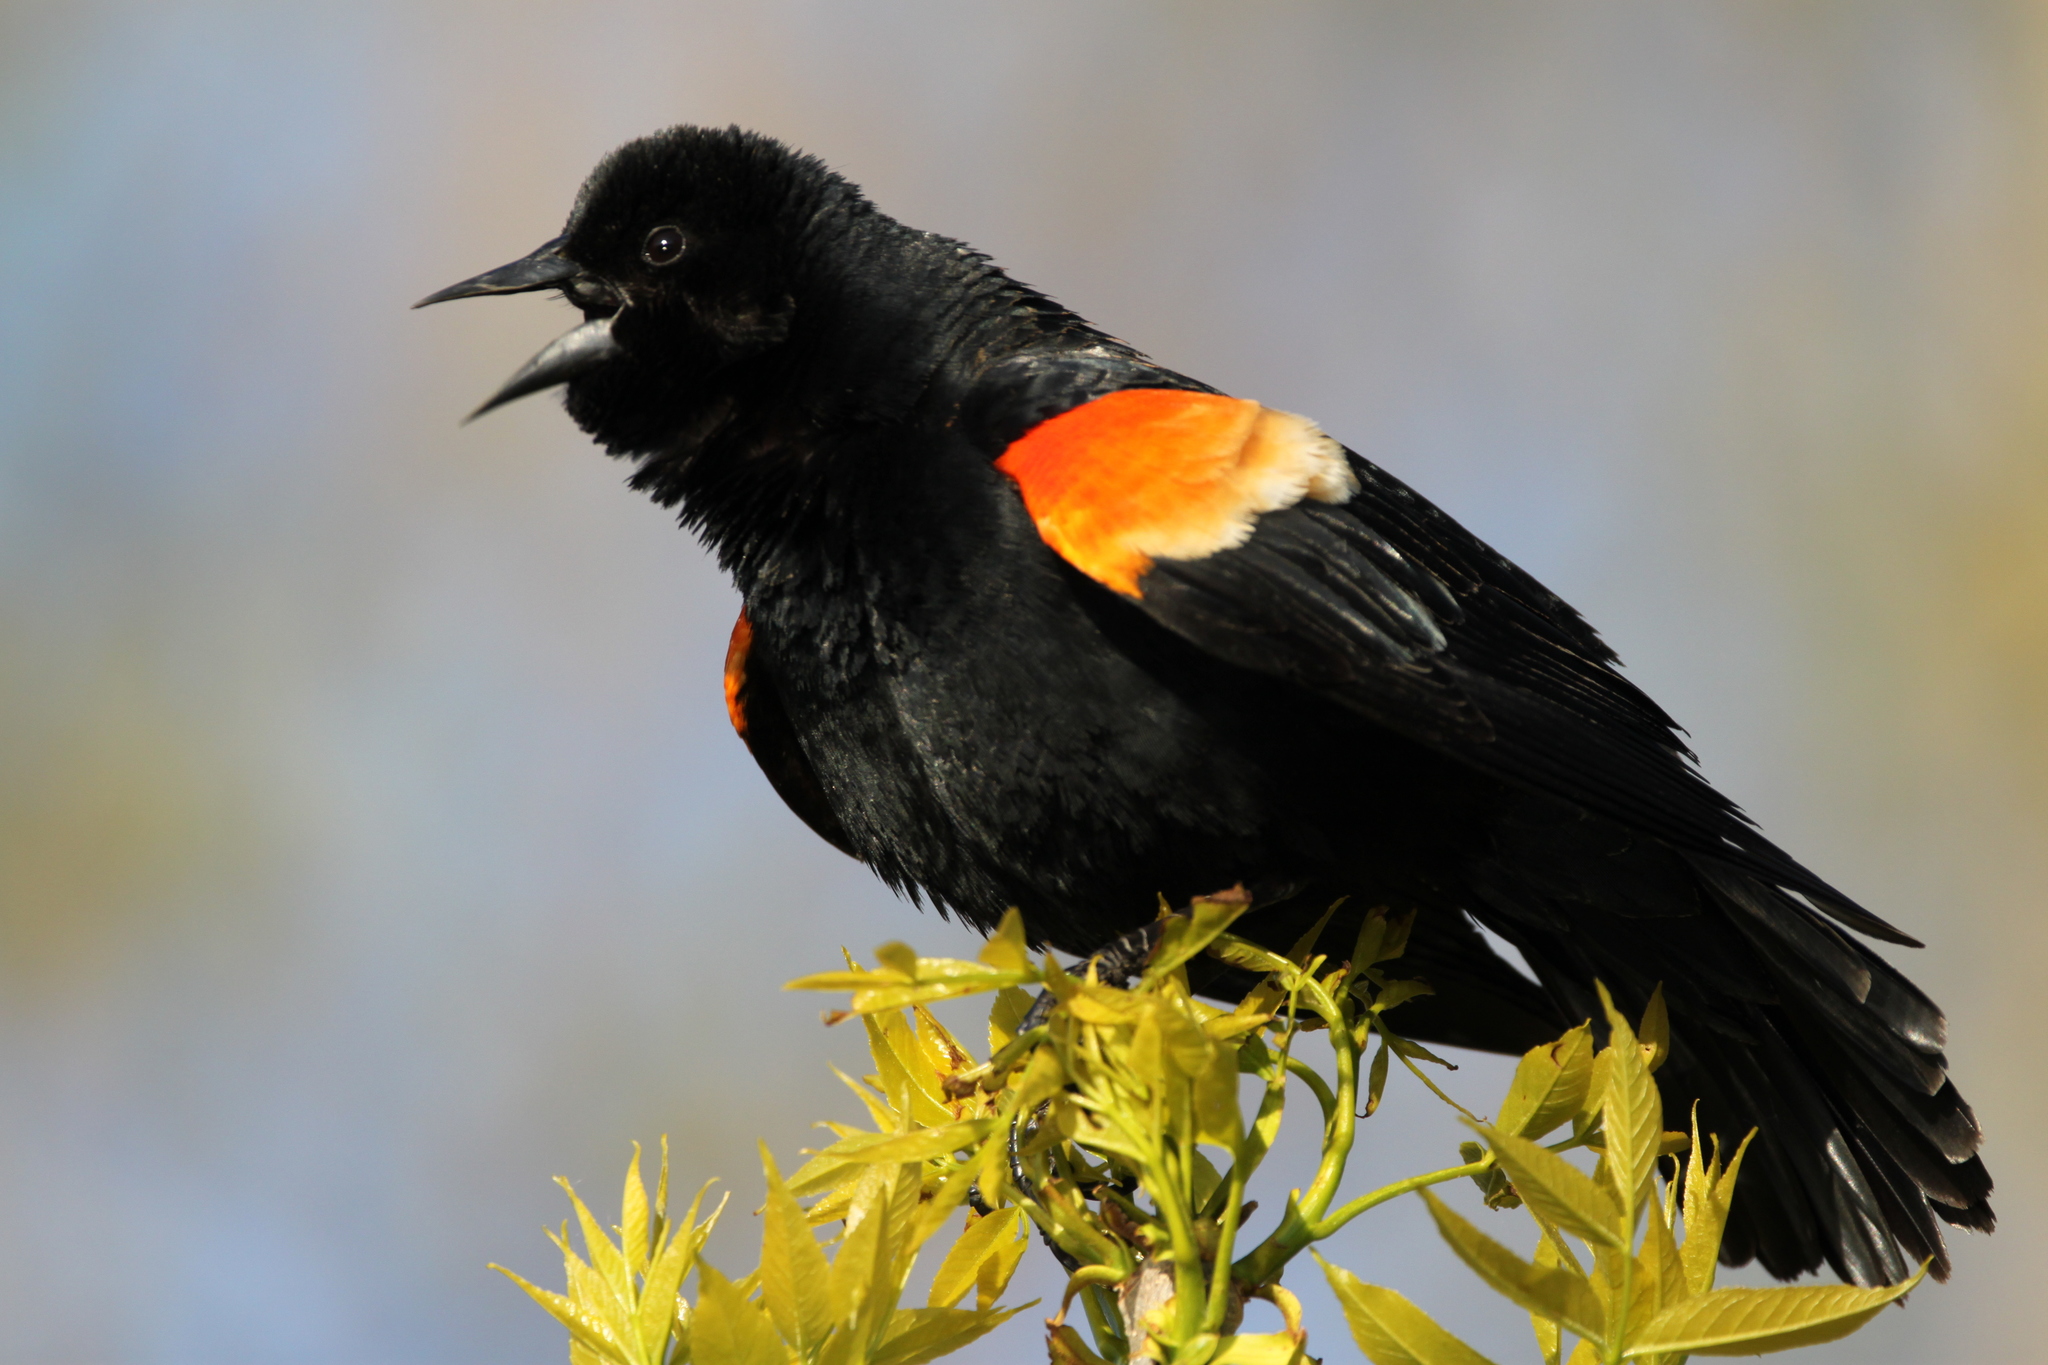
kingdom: Animalia
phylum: Chordata
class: Aves
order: Passeriformes
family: Icteridae
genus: Agelaius
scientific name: Agelaius phoeniceus
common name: Red-winged blackbird
